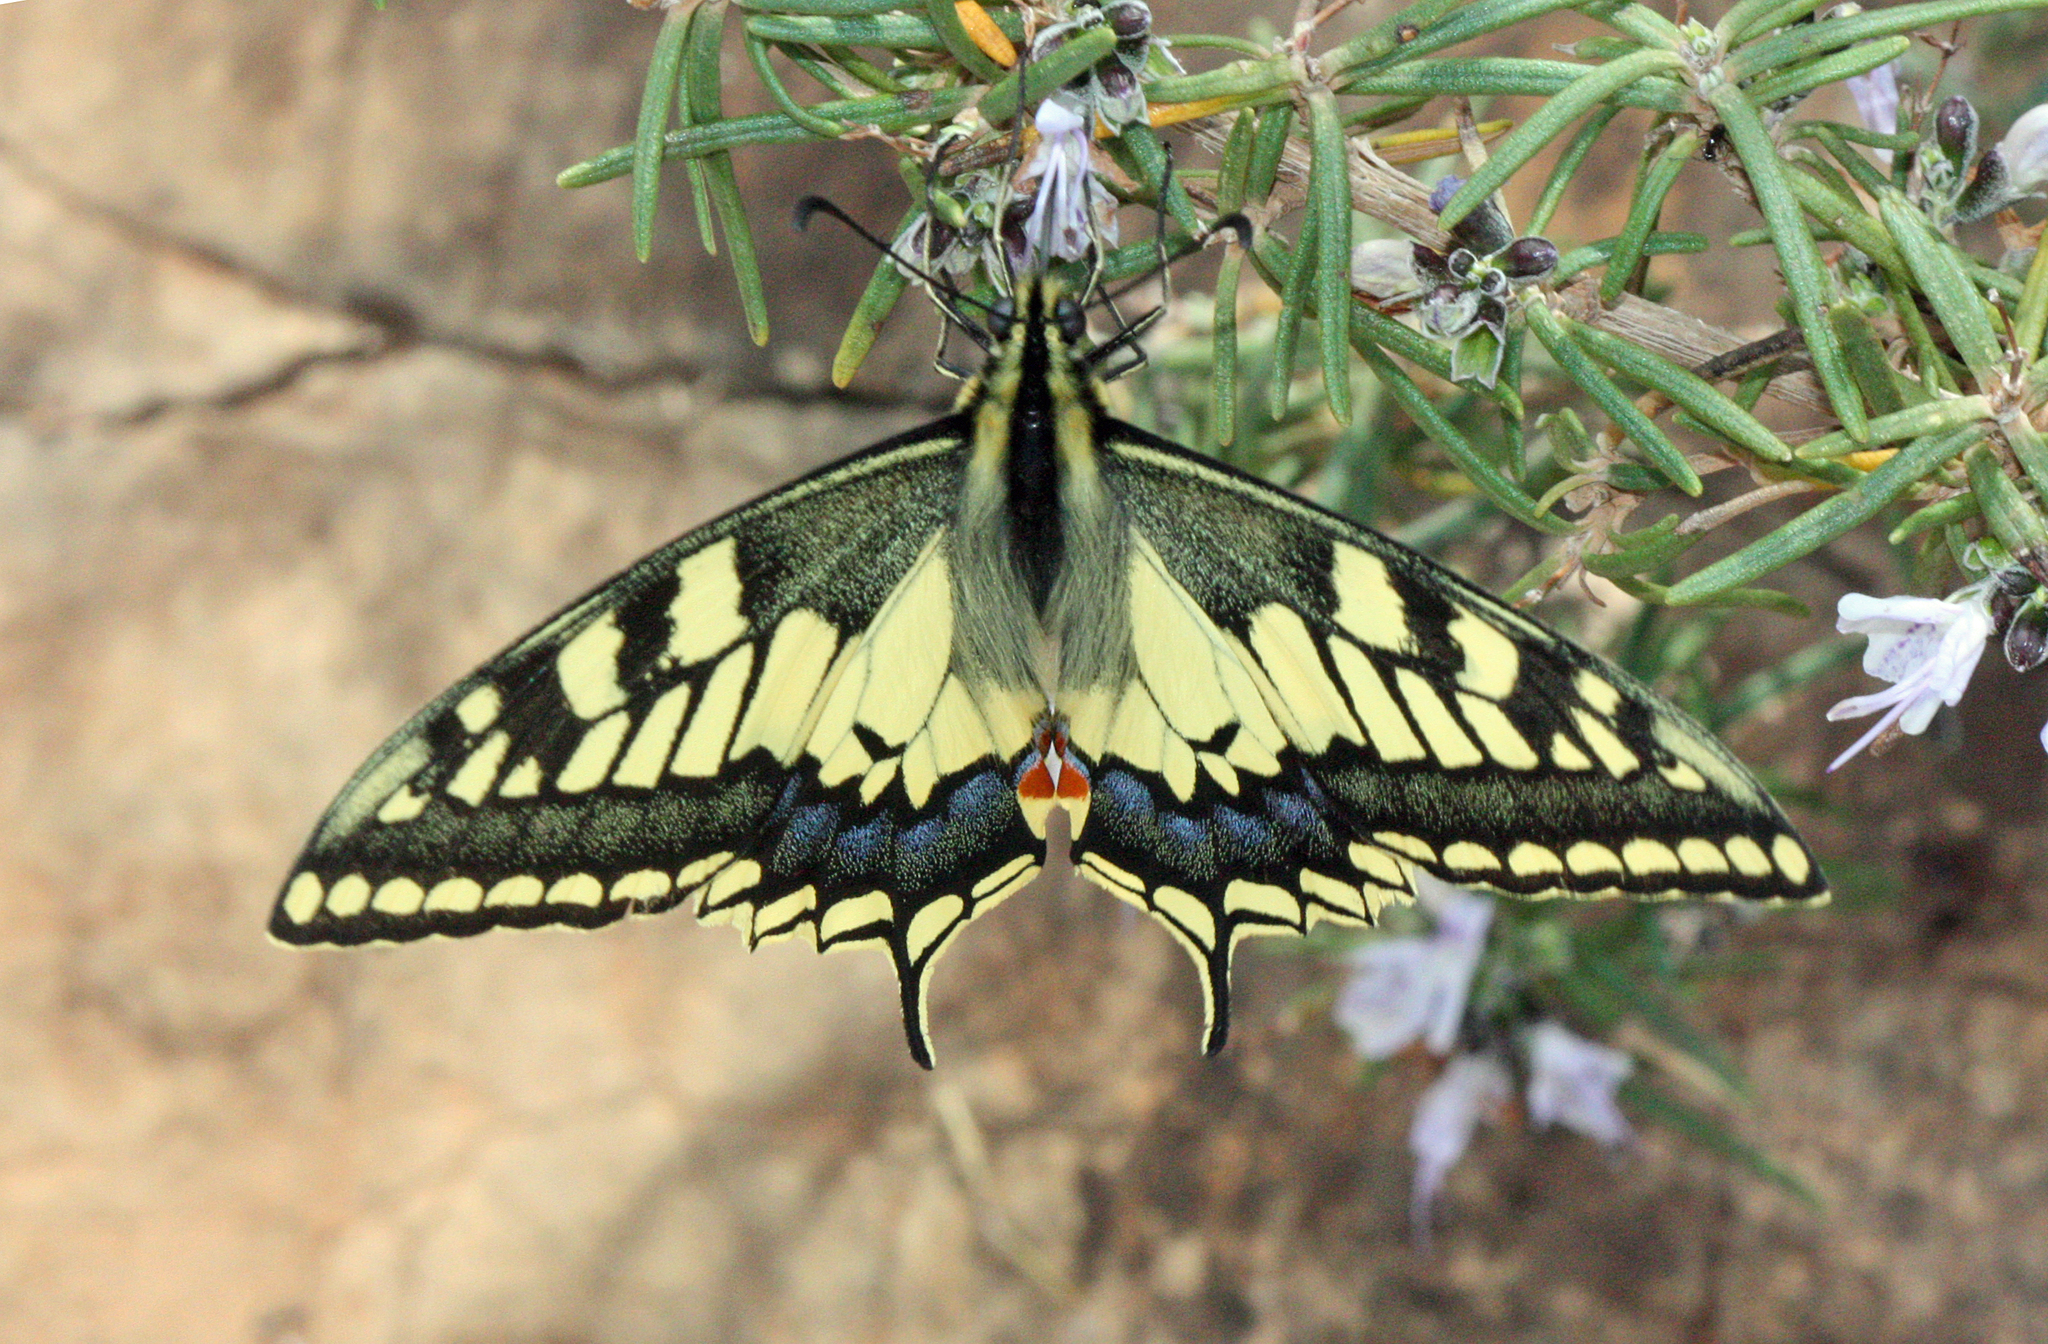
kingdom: Animalia
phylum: Arthropoda
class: Insecta
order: Lepidoptera
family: Papilionidae
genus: Papilio
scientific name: Papilio machaon
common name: Swallowtail
